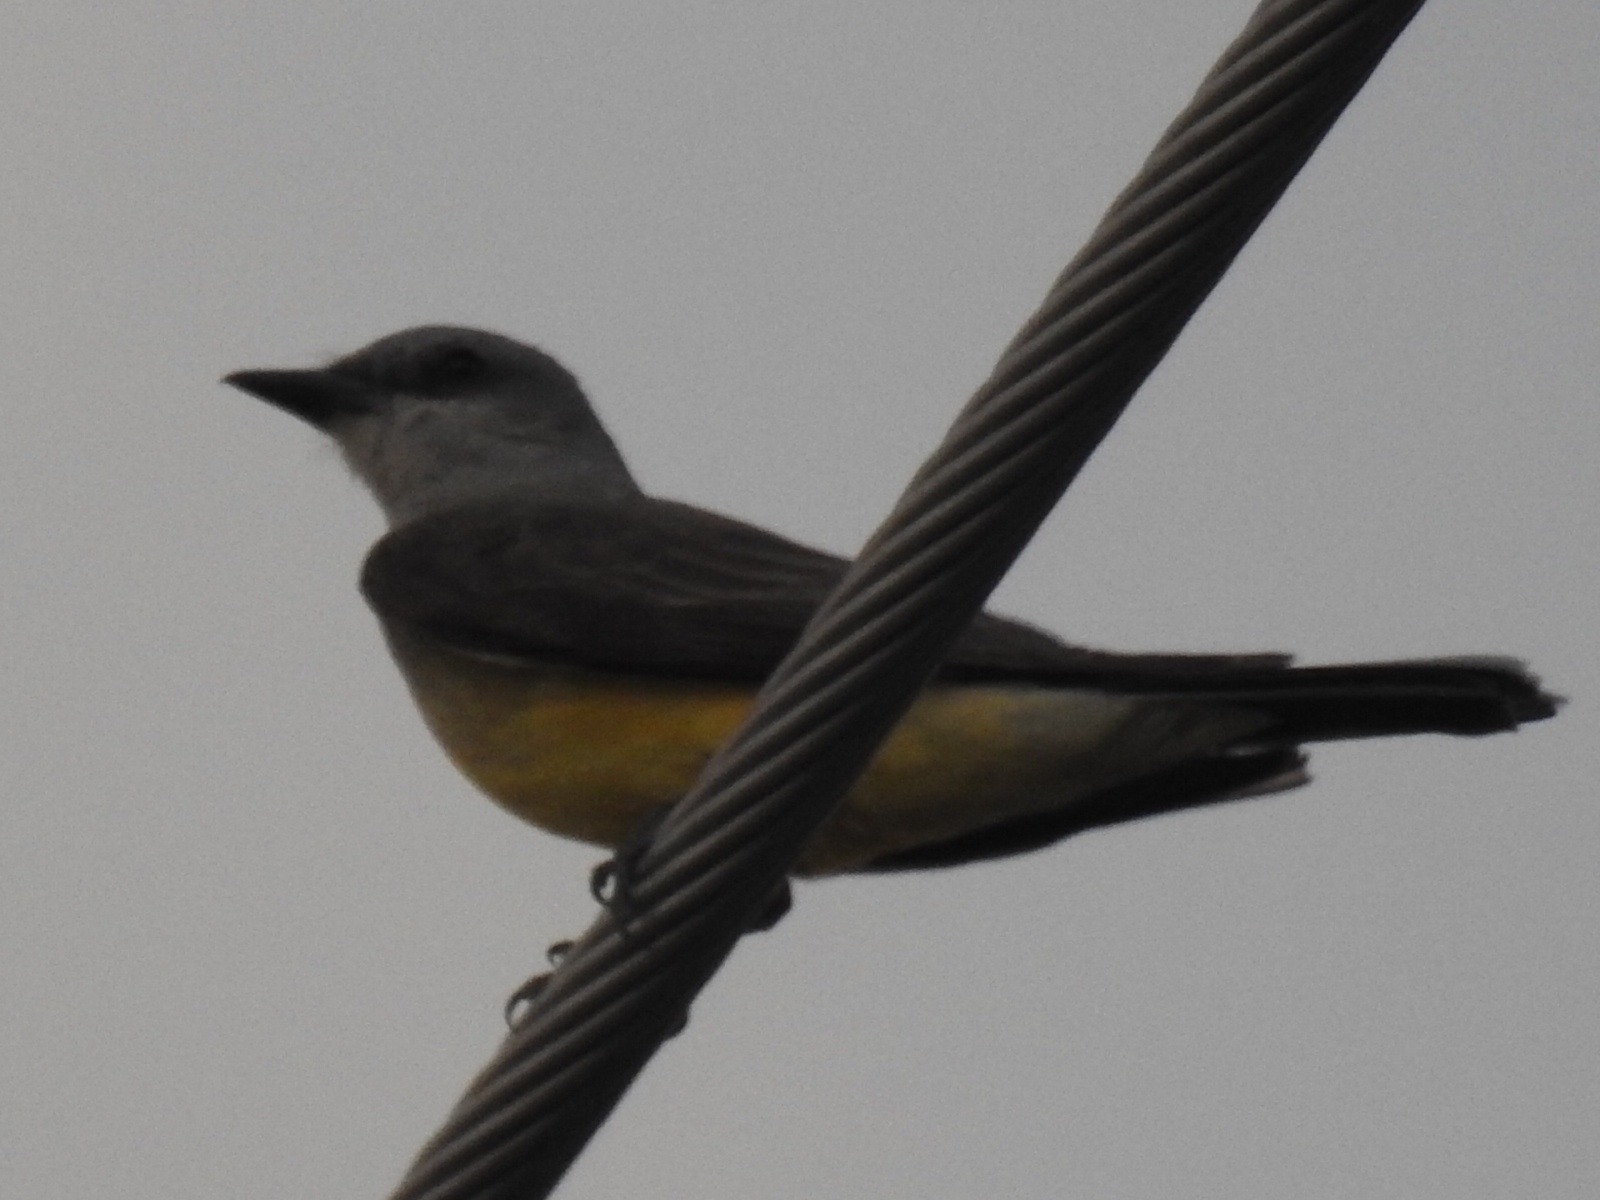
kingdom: Animalia
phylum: Chordata
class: Aves
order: Passeriformes
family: Tyrannidae
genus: Tyrannus
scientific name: Tyrannus verticalis
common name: Western kingbird
